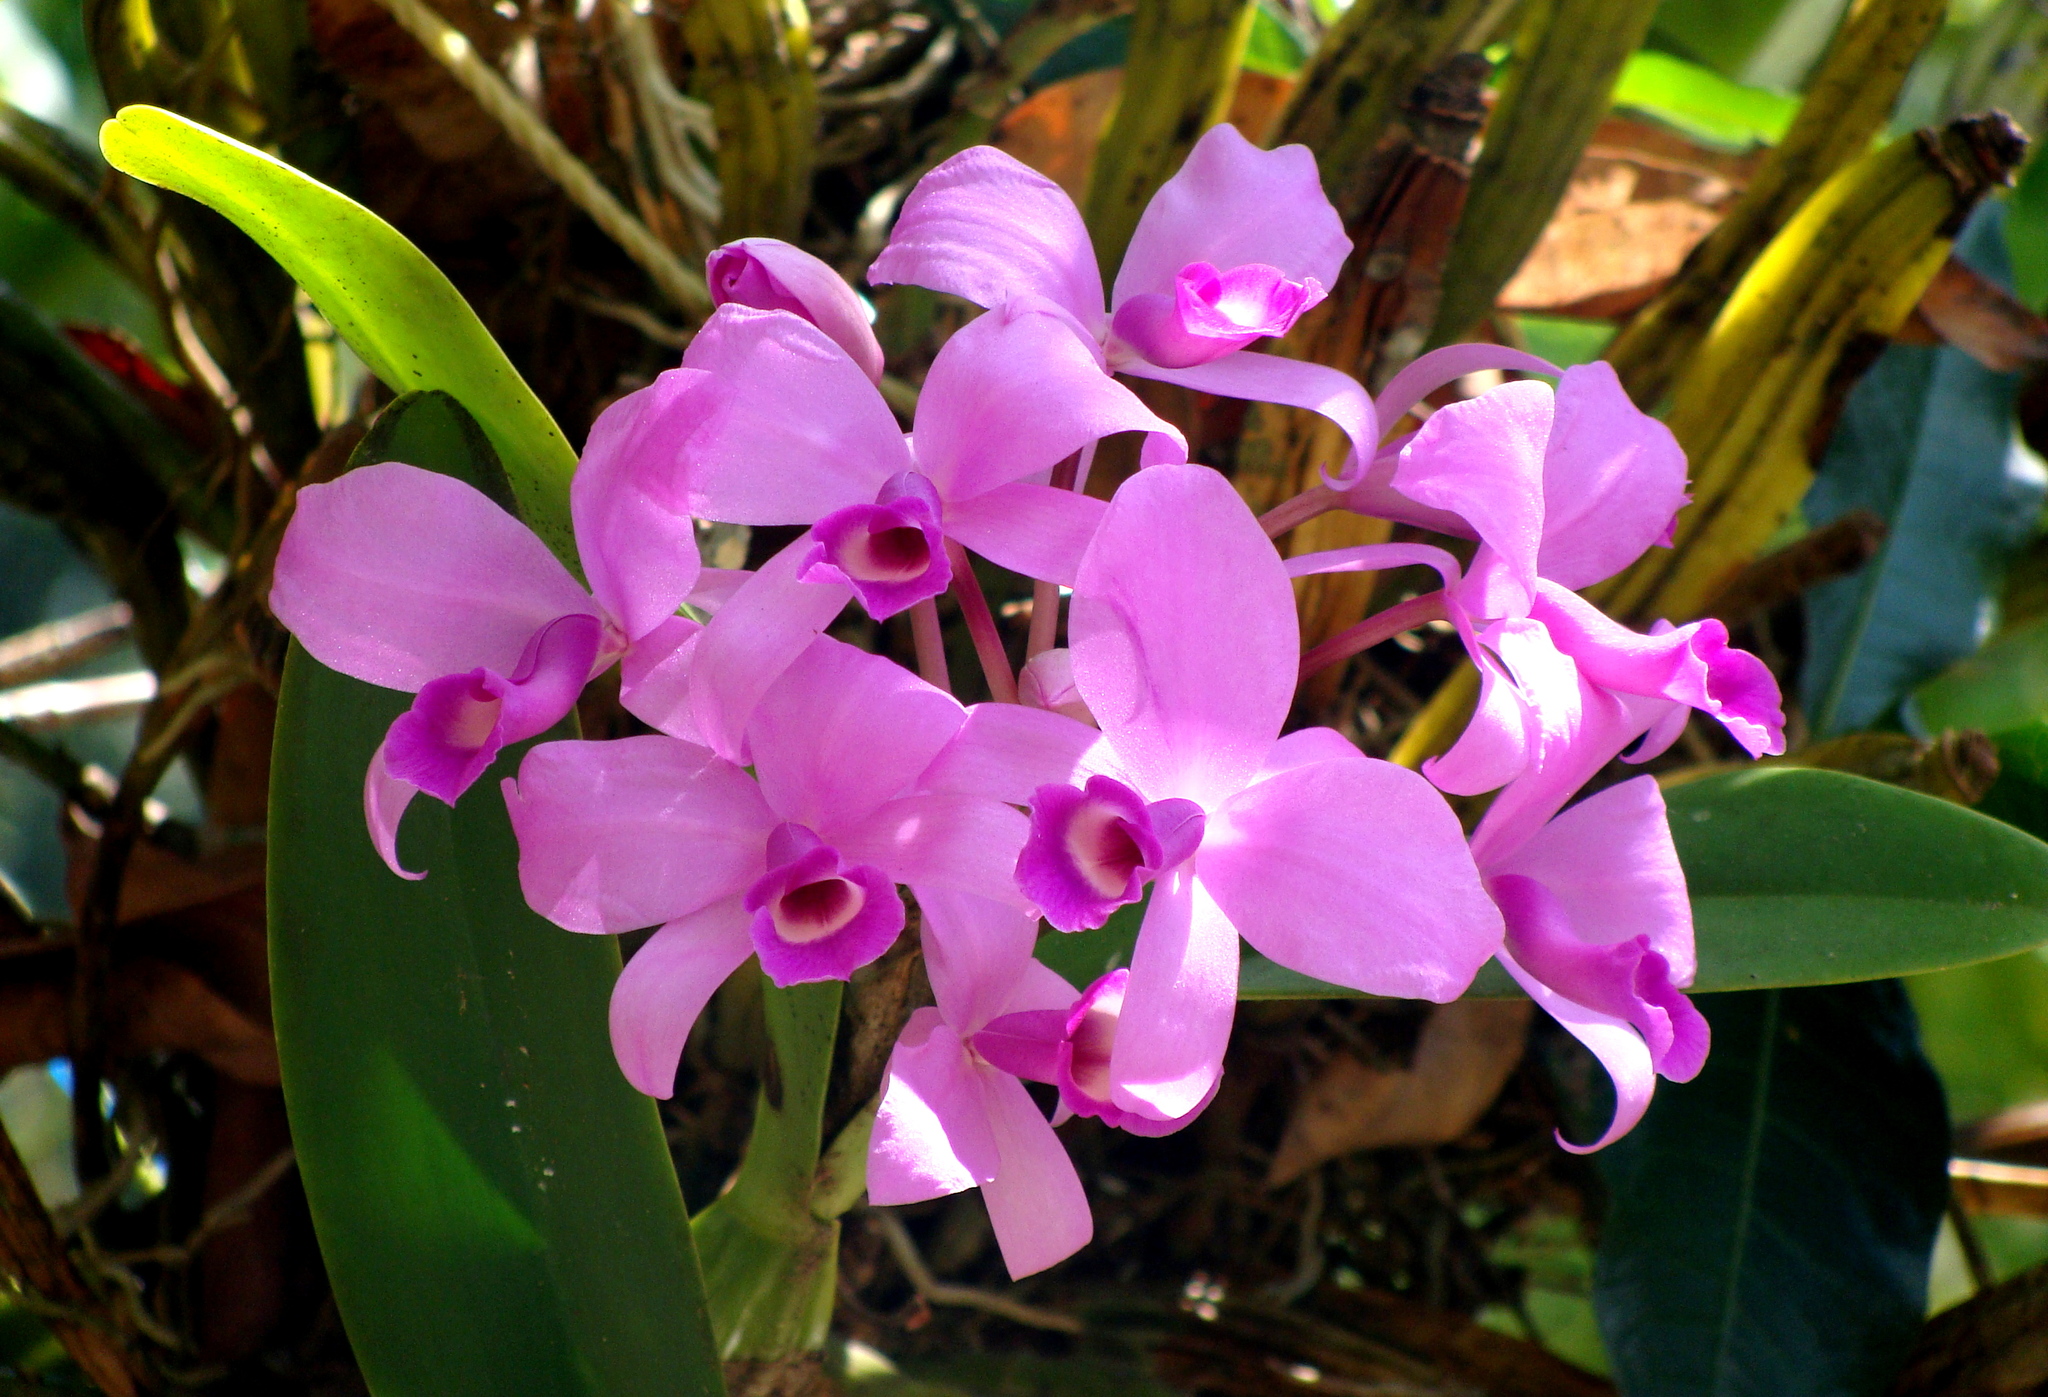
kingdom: Plantae
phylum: Tracheophyta
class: Liliopsida
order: Asparagales
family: Orchidaceae
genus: Guarianthe
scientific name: Guarianthe skinneri
